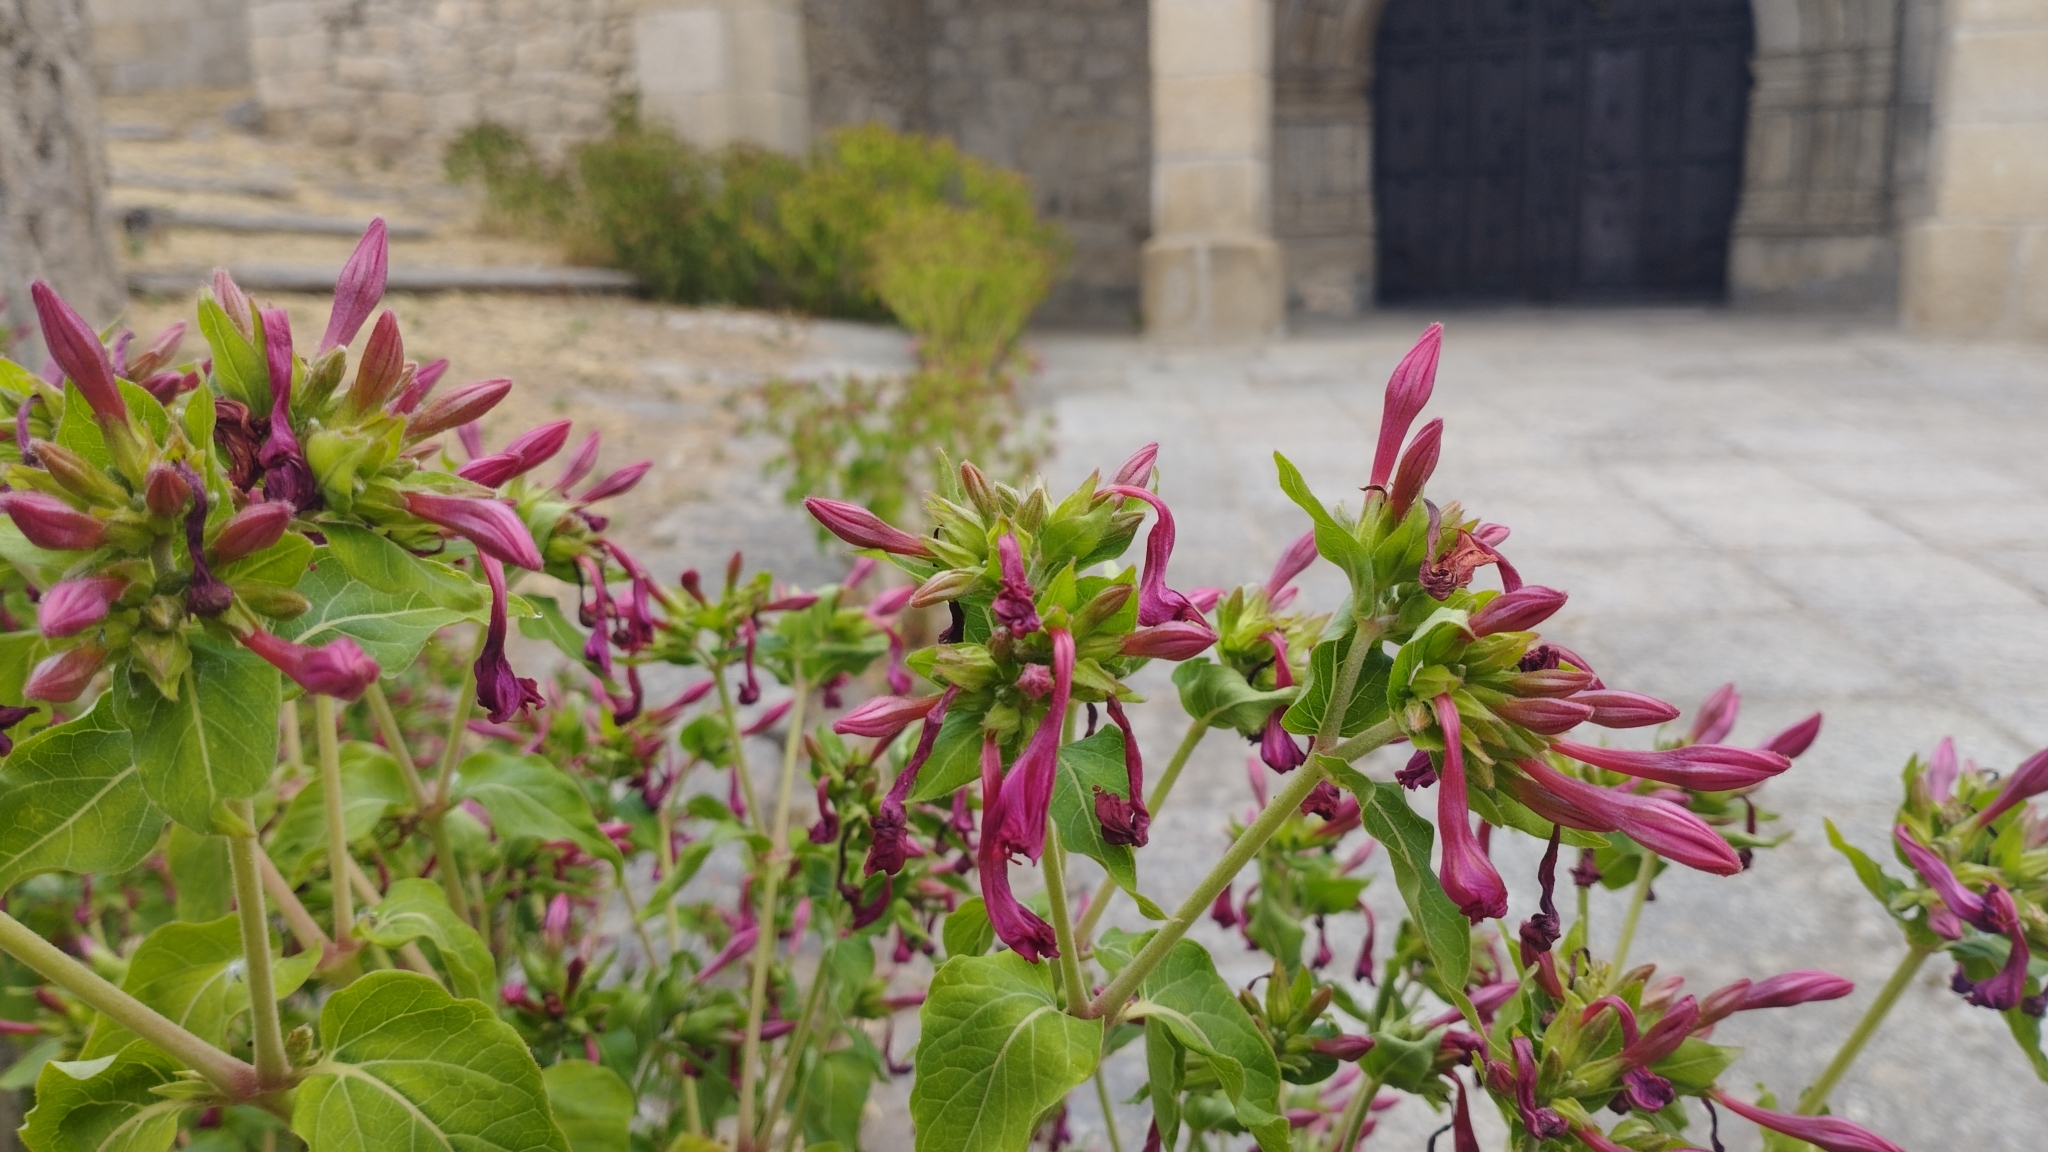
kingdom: Plantae
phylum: Tracheophyta
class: Magnoliopsida
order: Caryophyllales
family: Nyctaginaceae
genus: Mirabilis
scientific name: Mirabilis jalapa
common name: Marvel-of-peru
